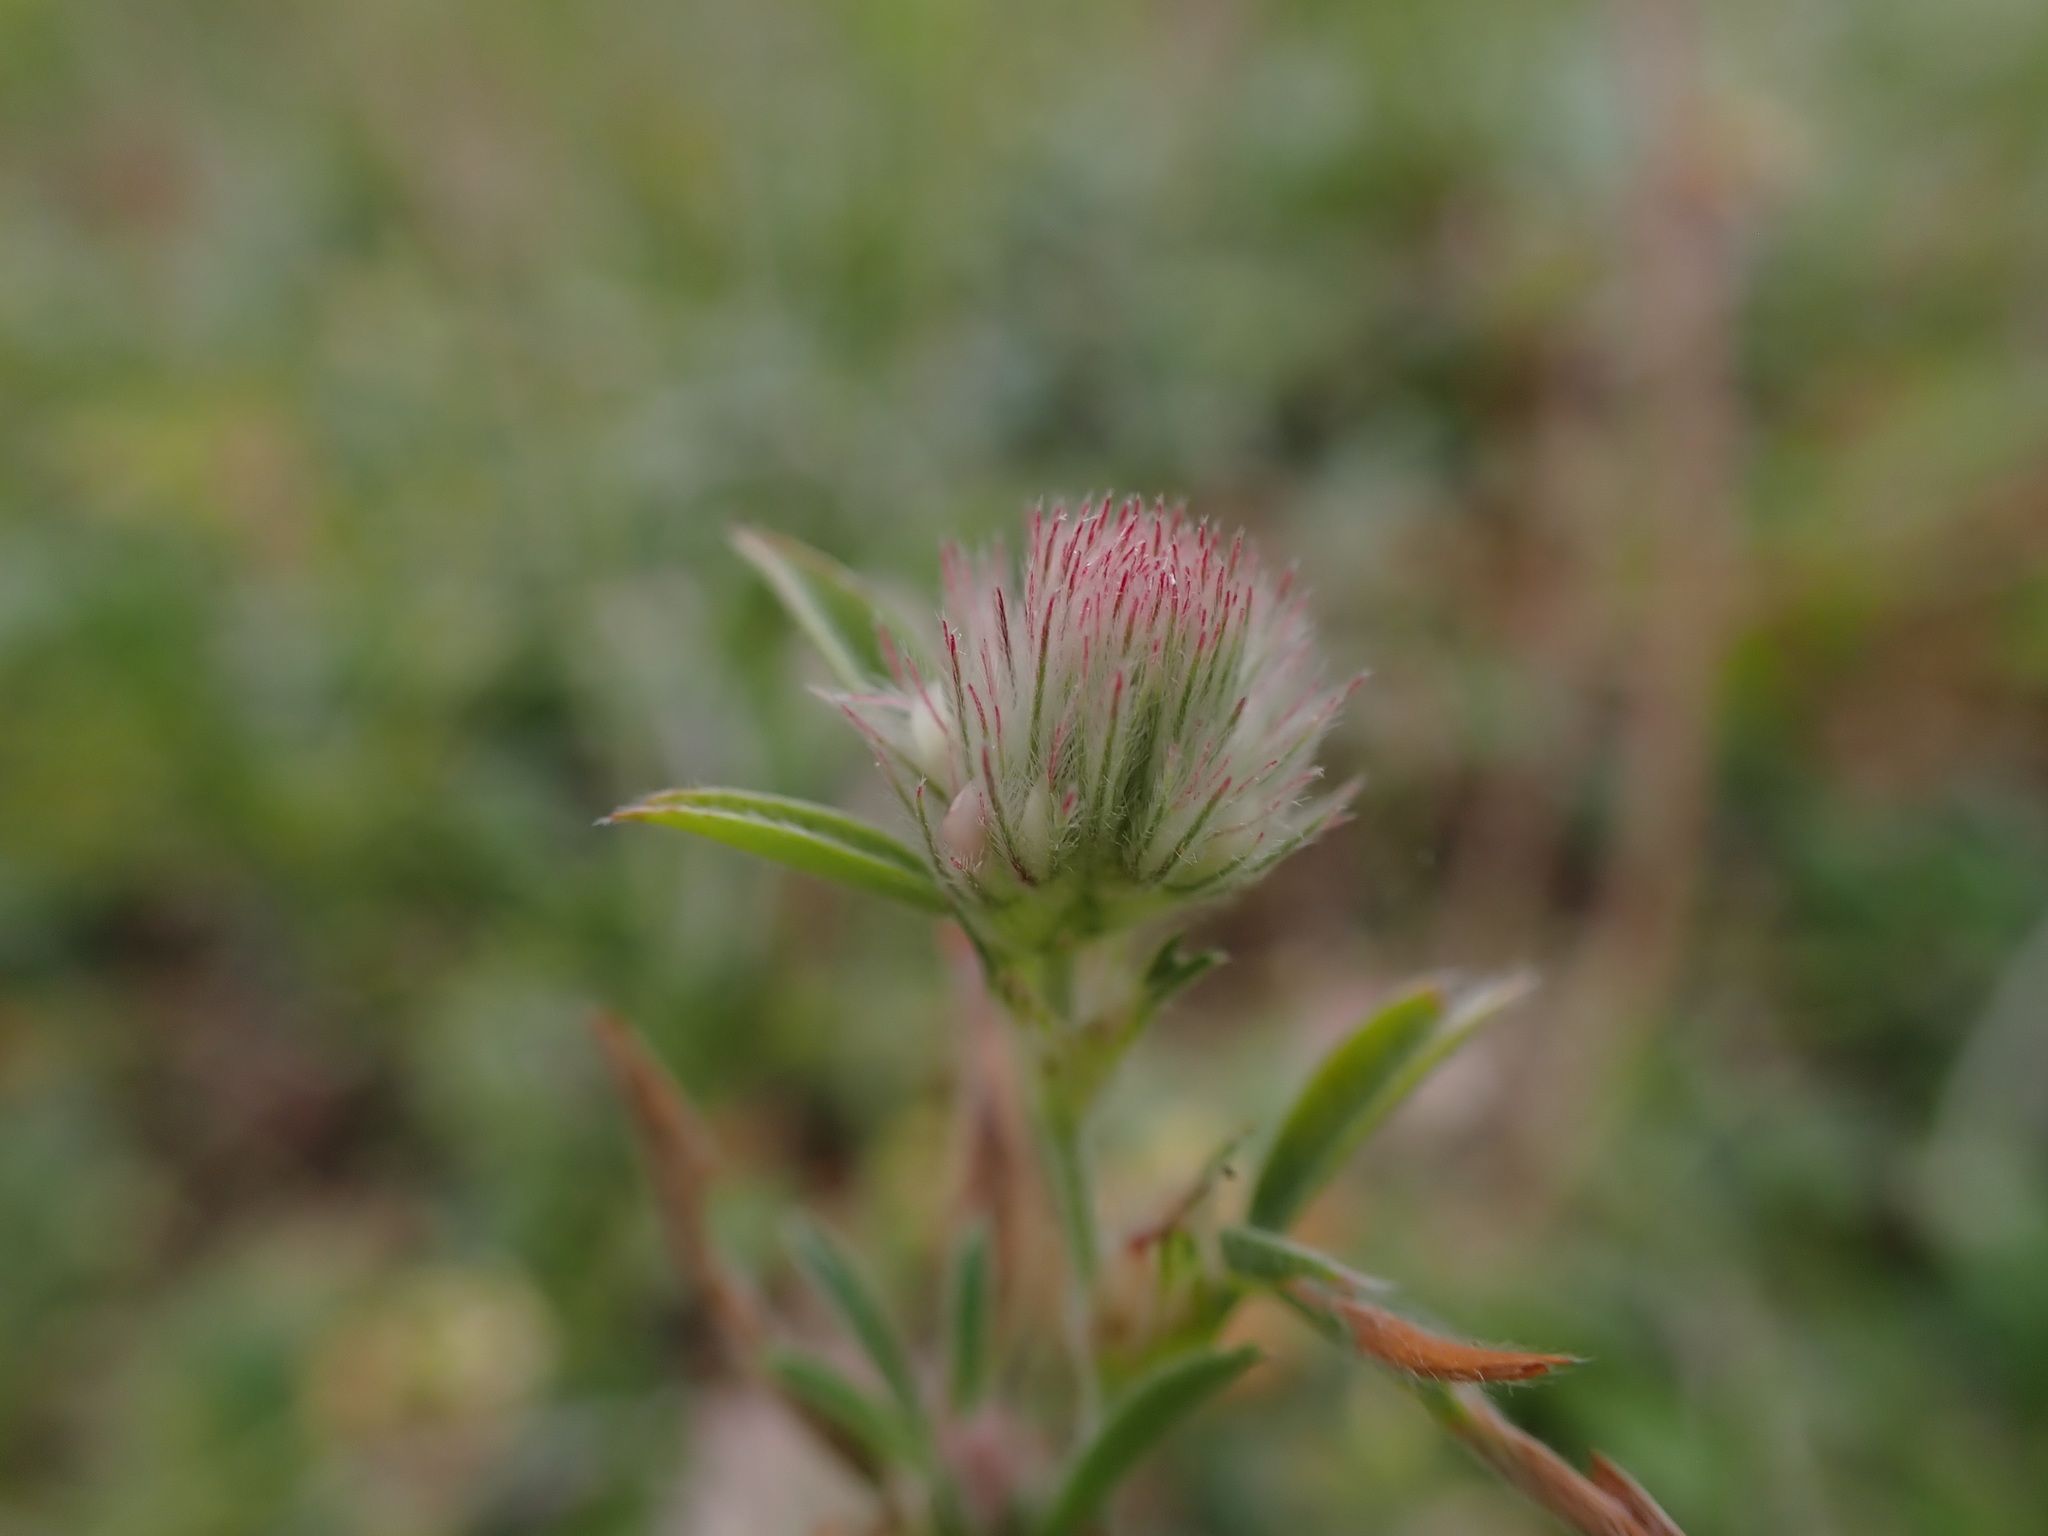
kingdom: Plantae
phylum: Tracheophyta
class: Magnoliopsida
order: Fabales
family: Fabaceae
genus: Trifolium
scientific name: Trifolium arvense
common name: Hare's-foot clover
